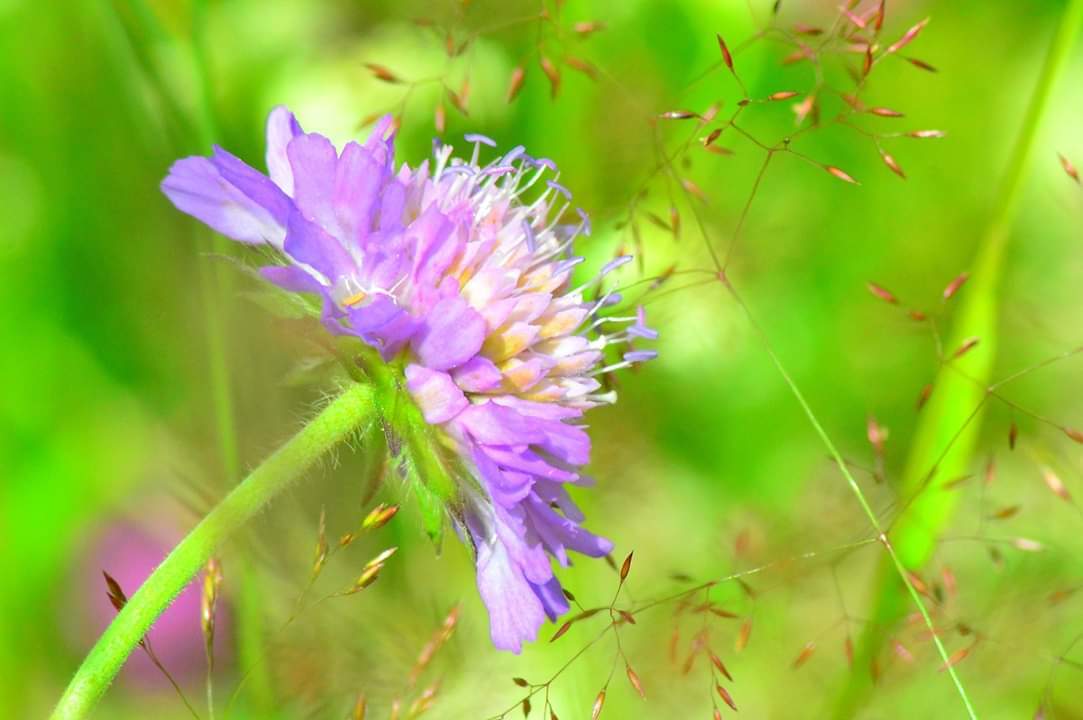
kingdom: Plantae
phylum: Tracheophyta
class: Magnoliopsida
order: Dipsacales
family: Caprifoliaceae
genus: Knautia
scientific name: Knautia arvensis
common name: Field scabiosa
